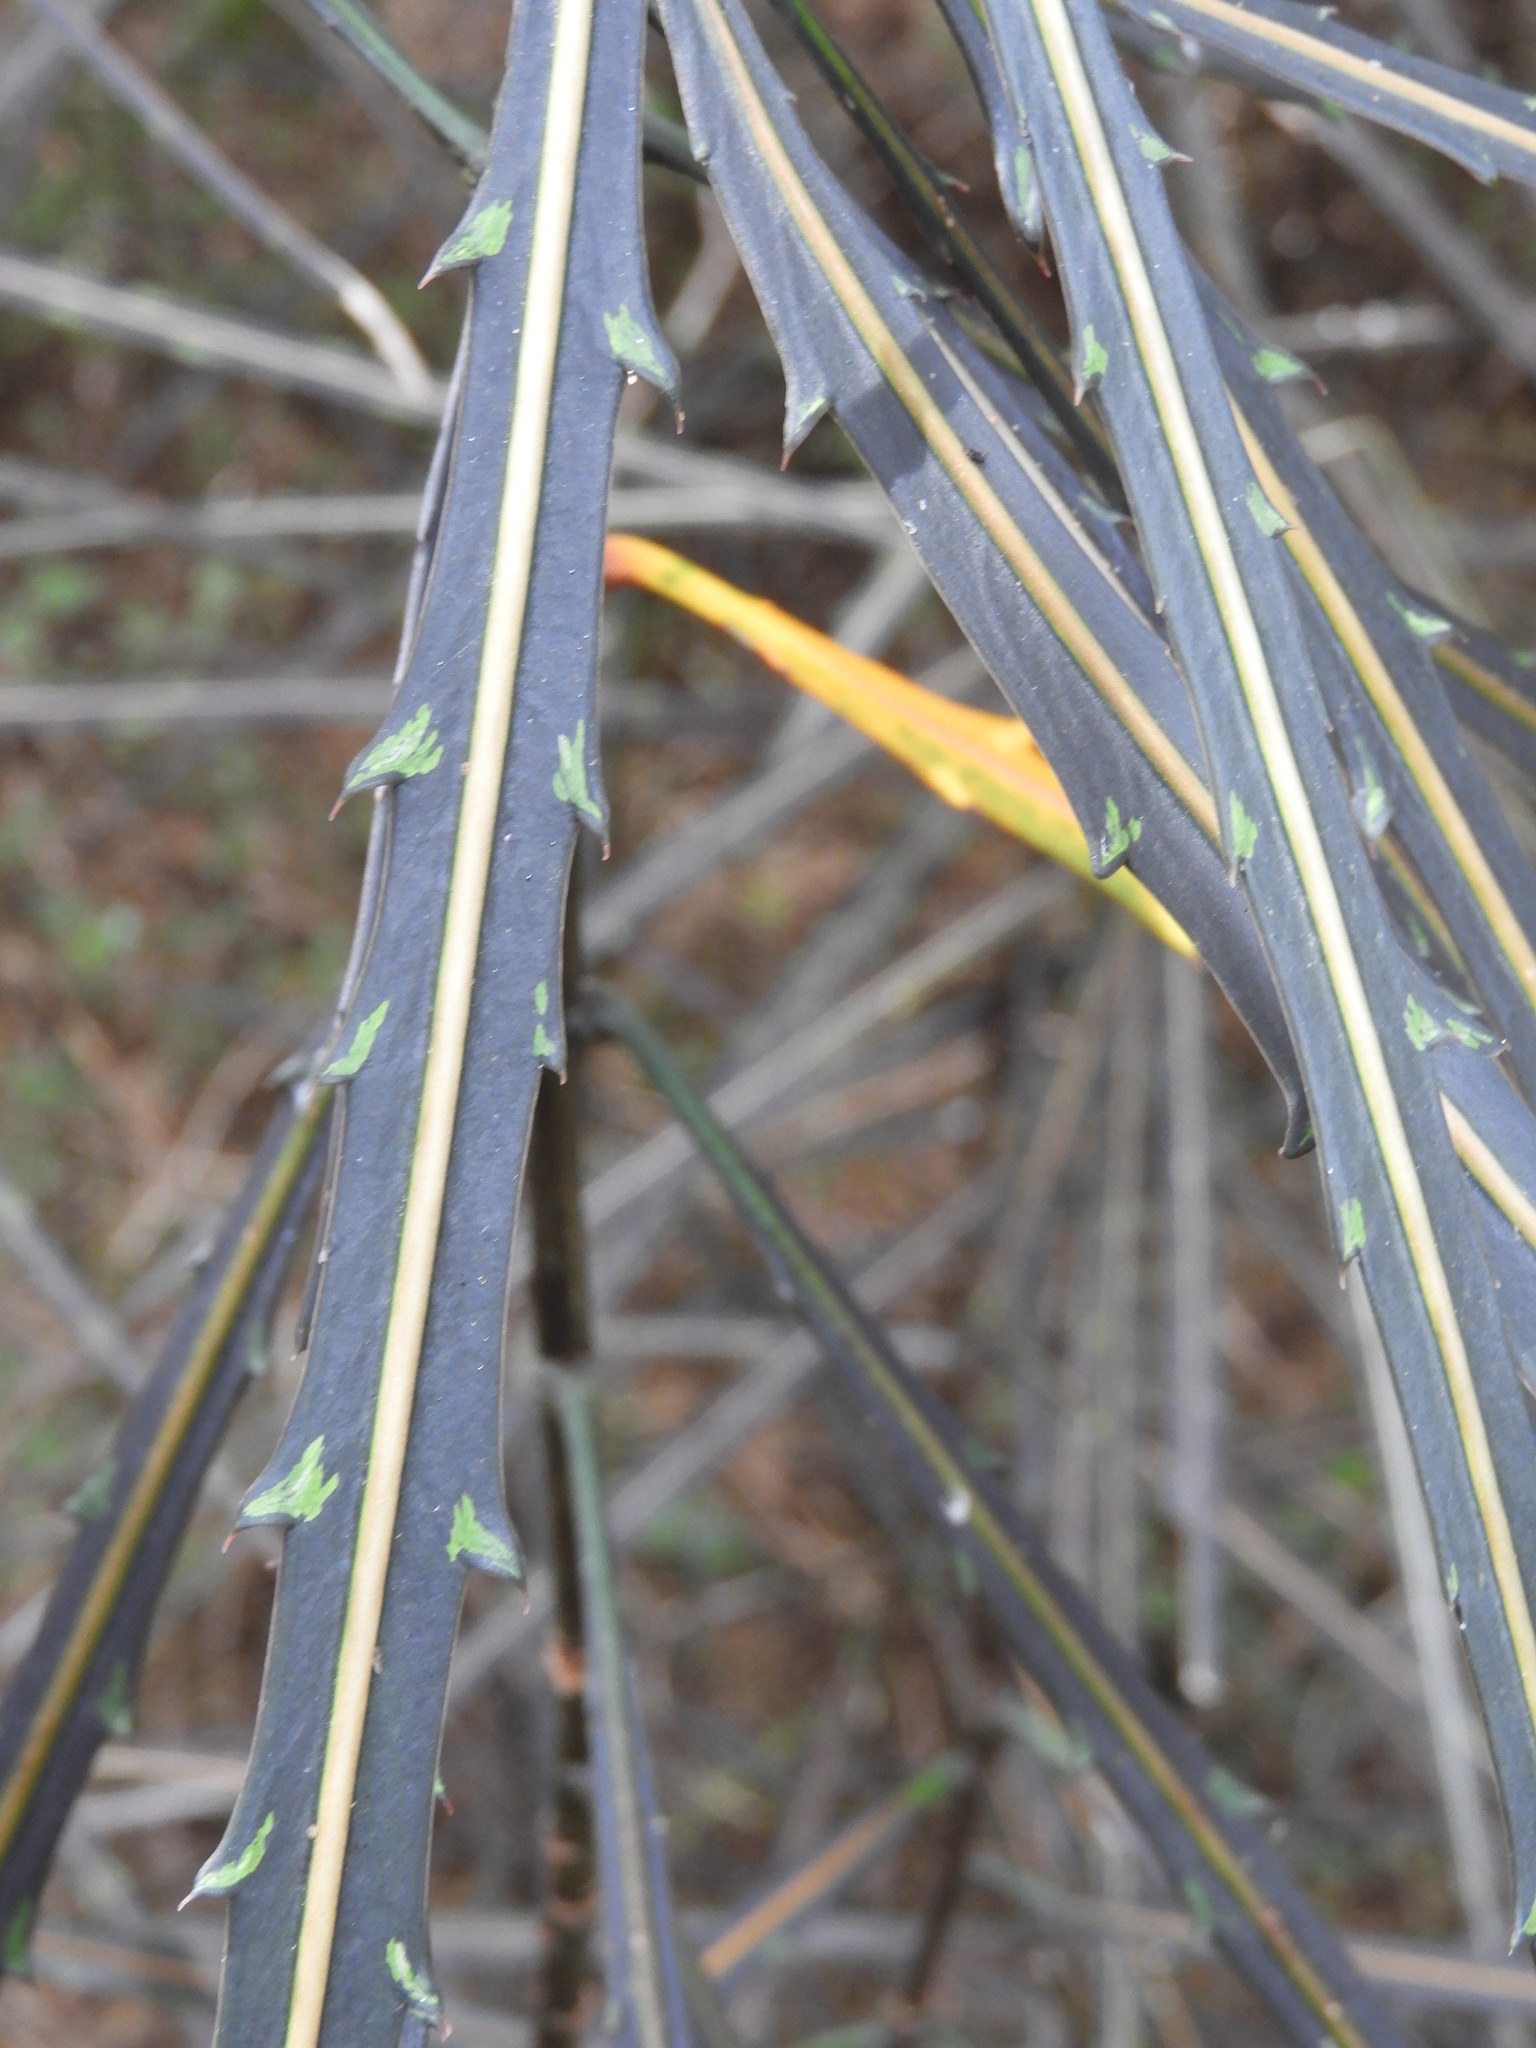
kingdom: Plantae
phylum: Tracheophyta
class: Magnoliopsida
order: Apiales
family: Araliaceae
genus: Pseudopanax
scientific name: Pseudopanax crassifolius
